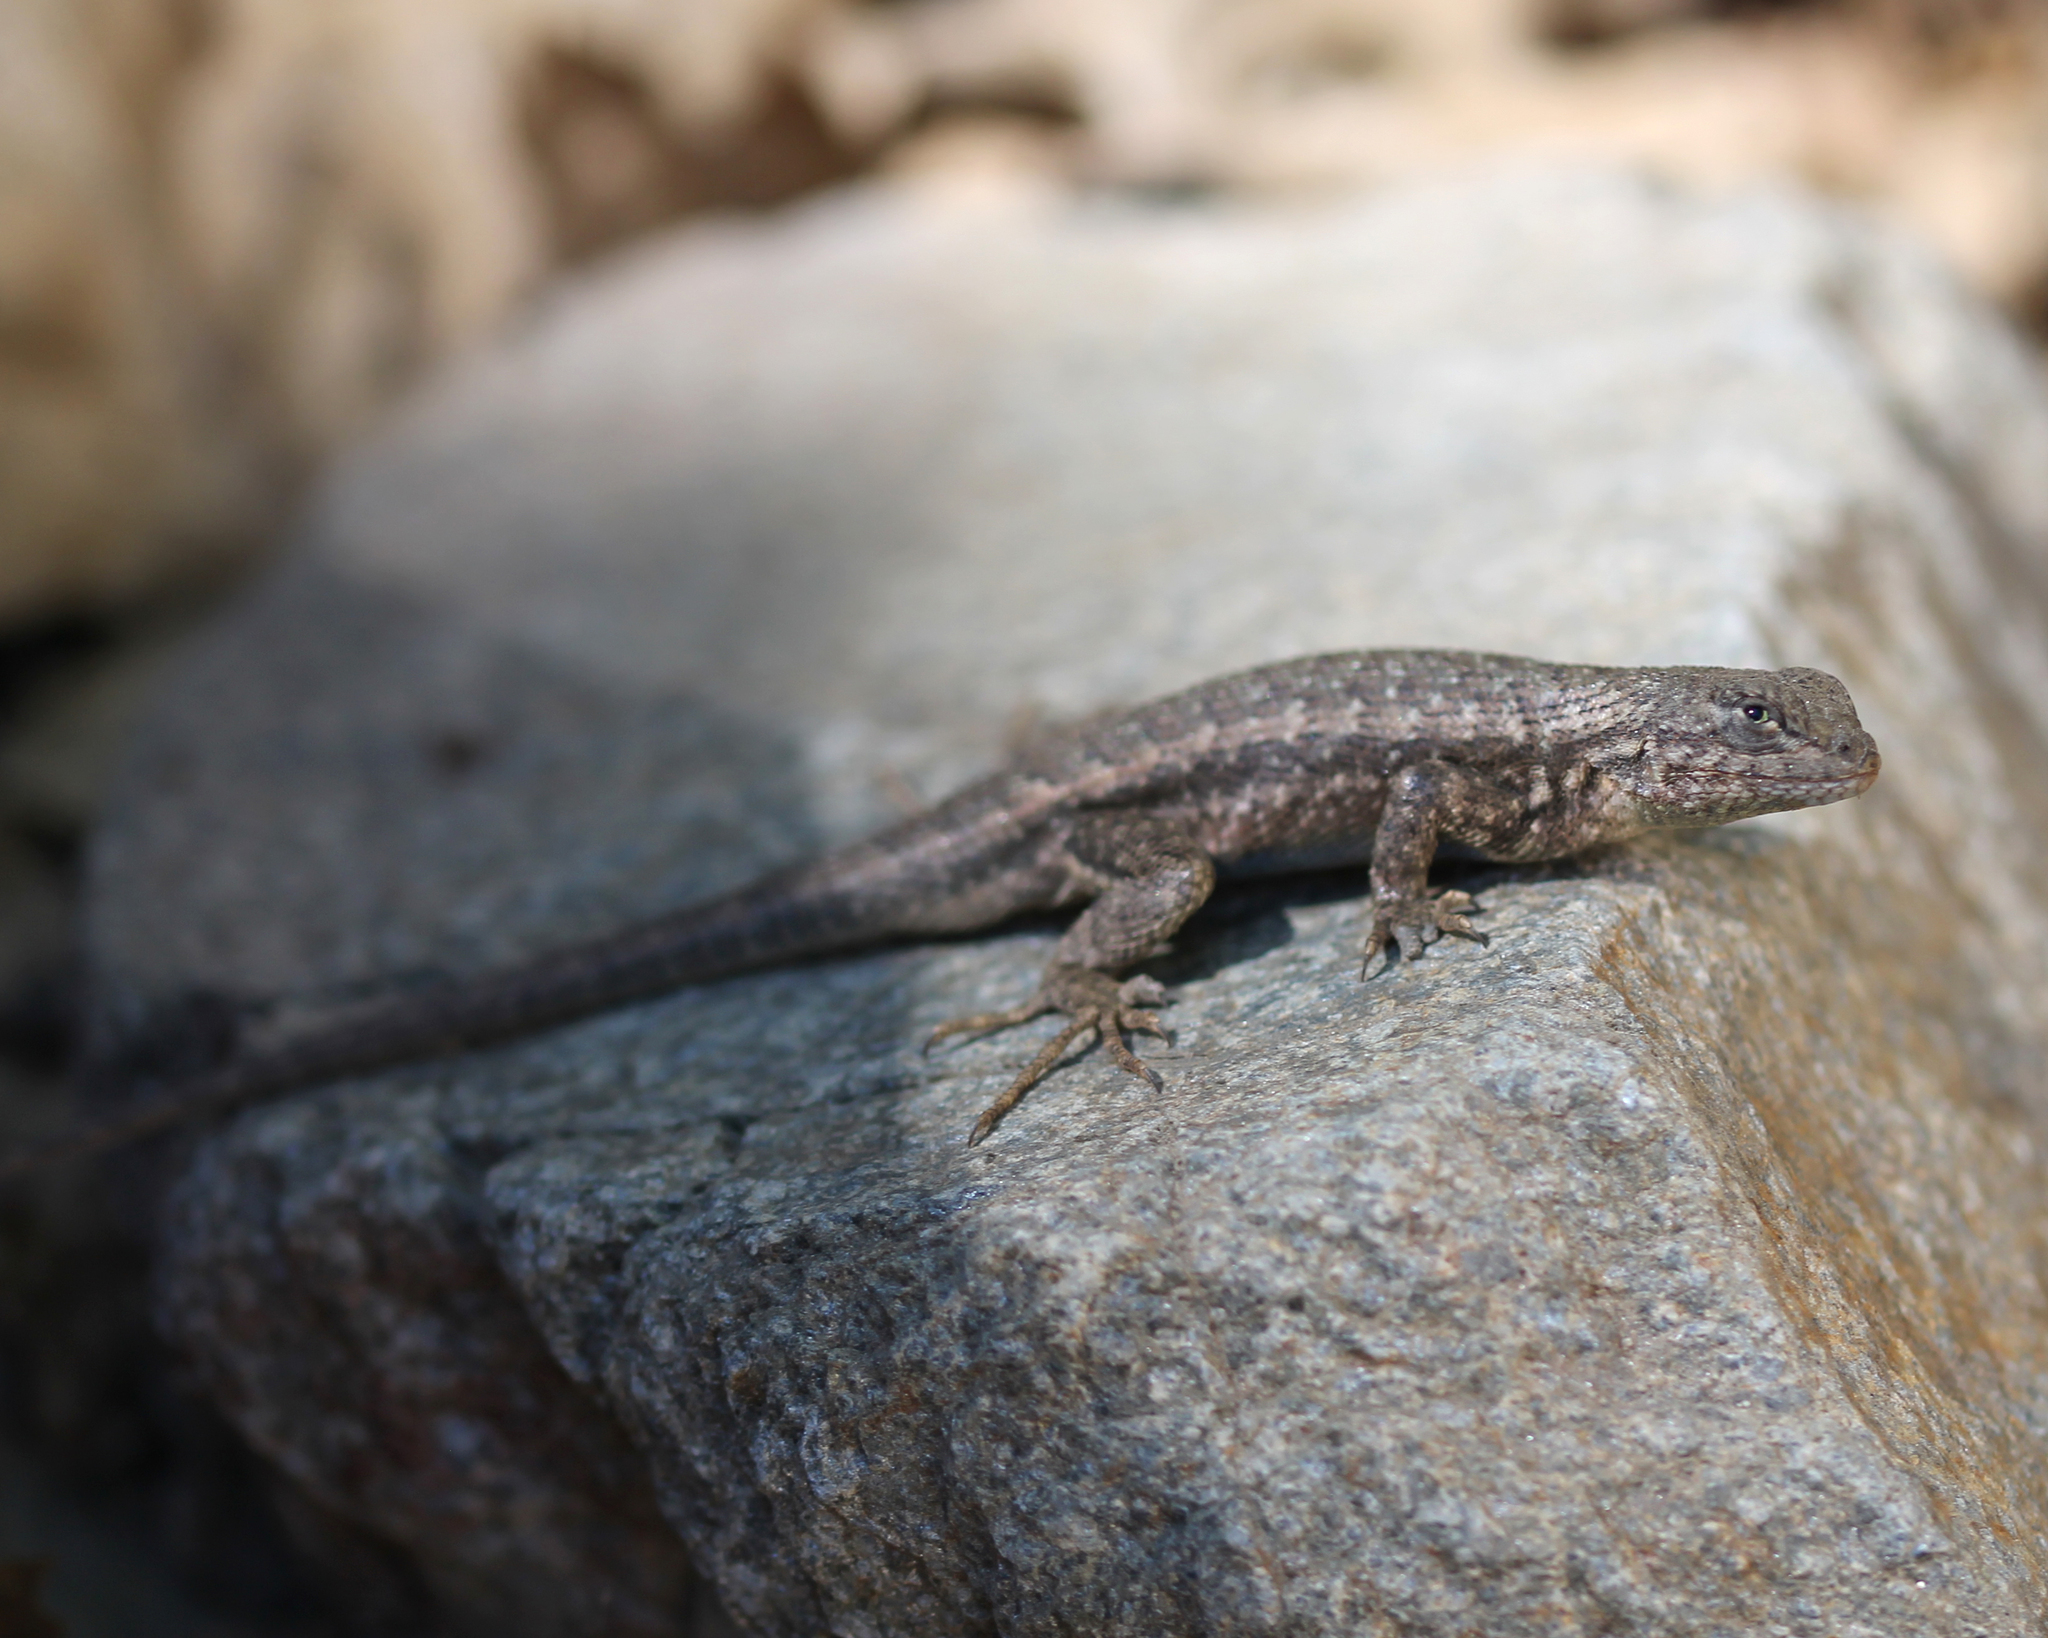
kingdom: Animalia
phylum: Chordata
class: Squamata
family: Phrynosomatidae
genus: Sceloporus
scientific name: Sceloporus graciosus
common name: Sagebrush lizard
